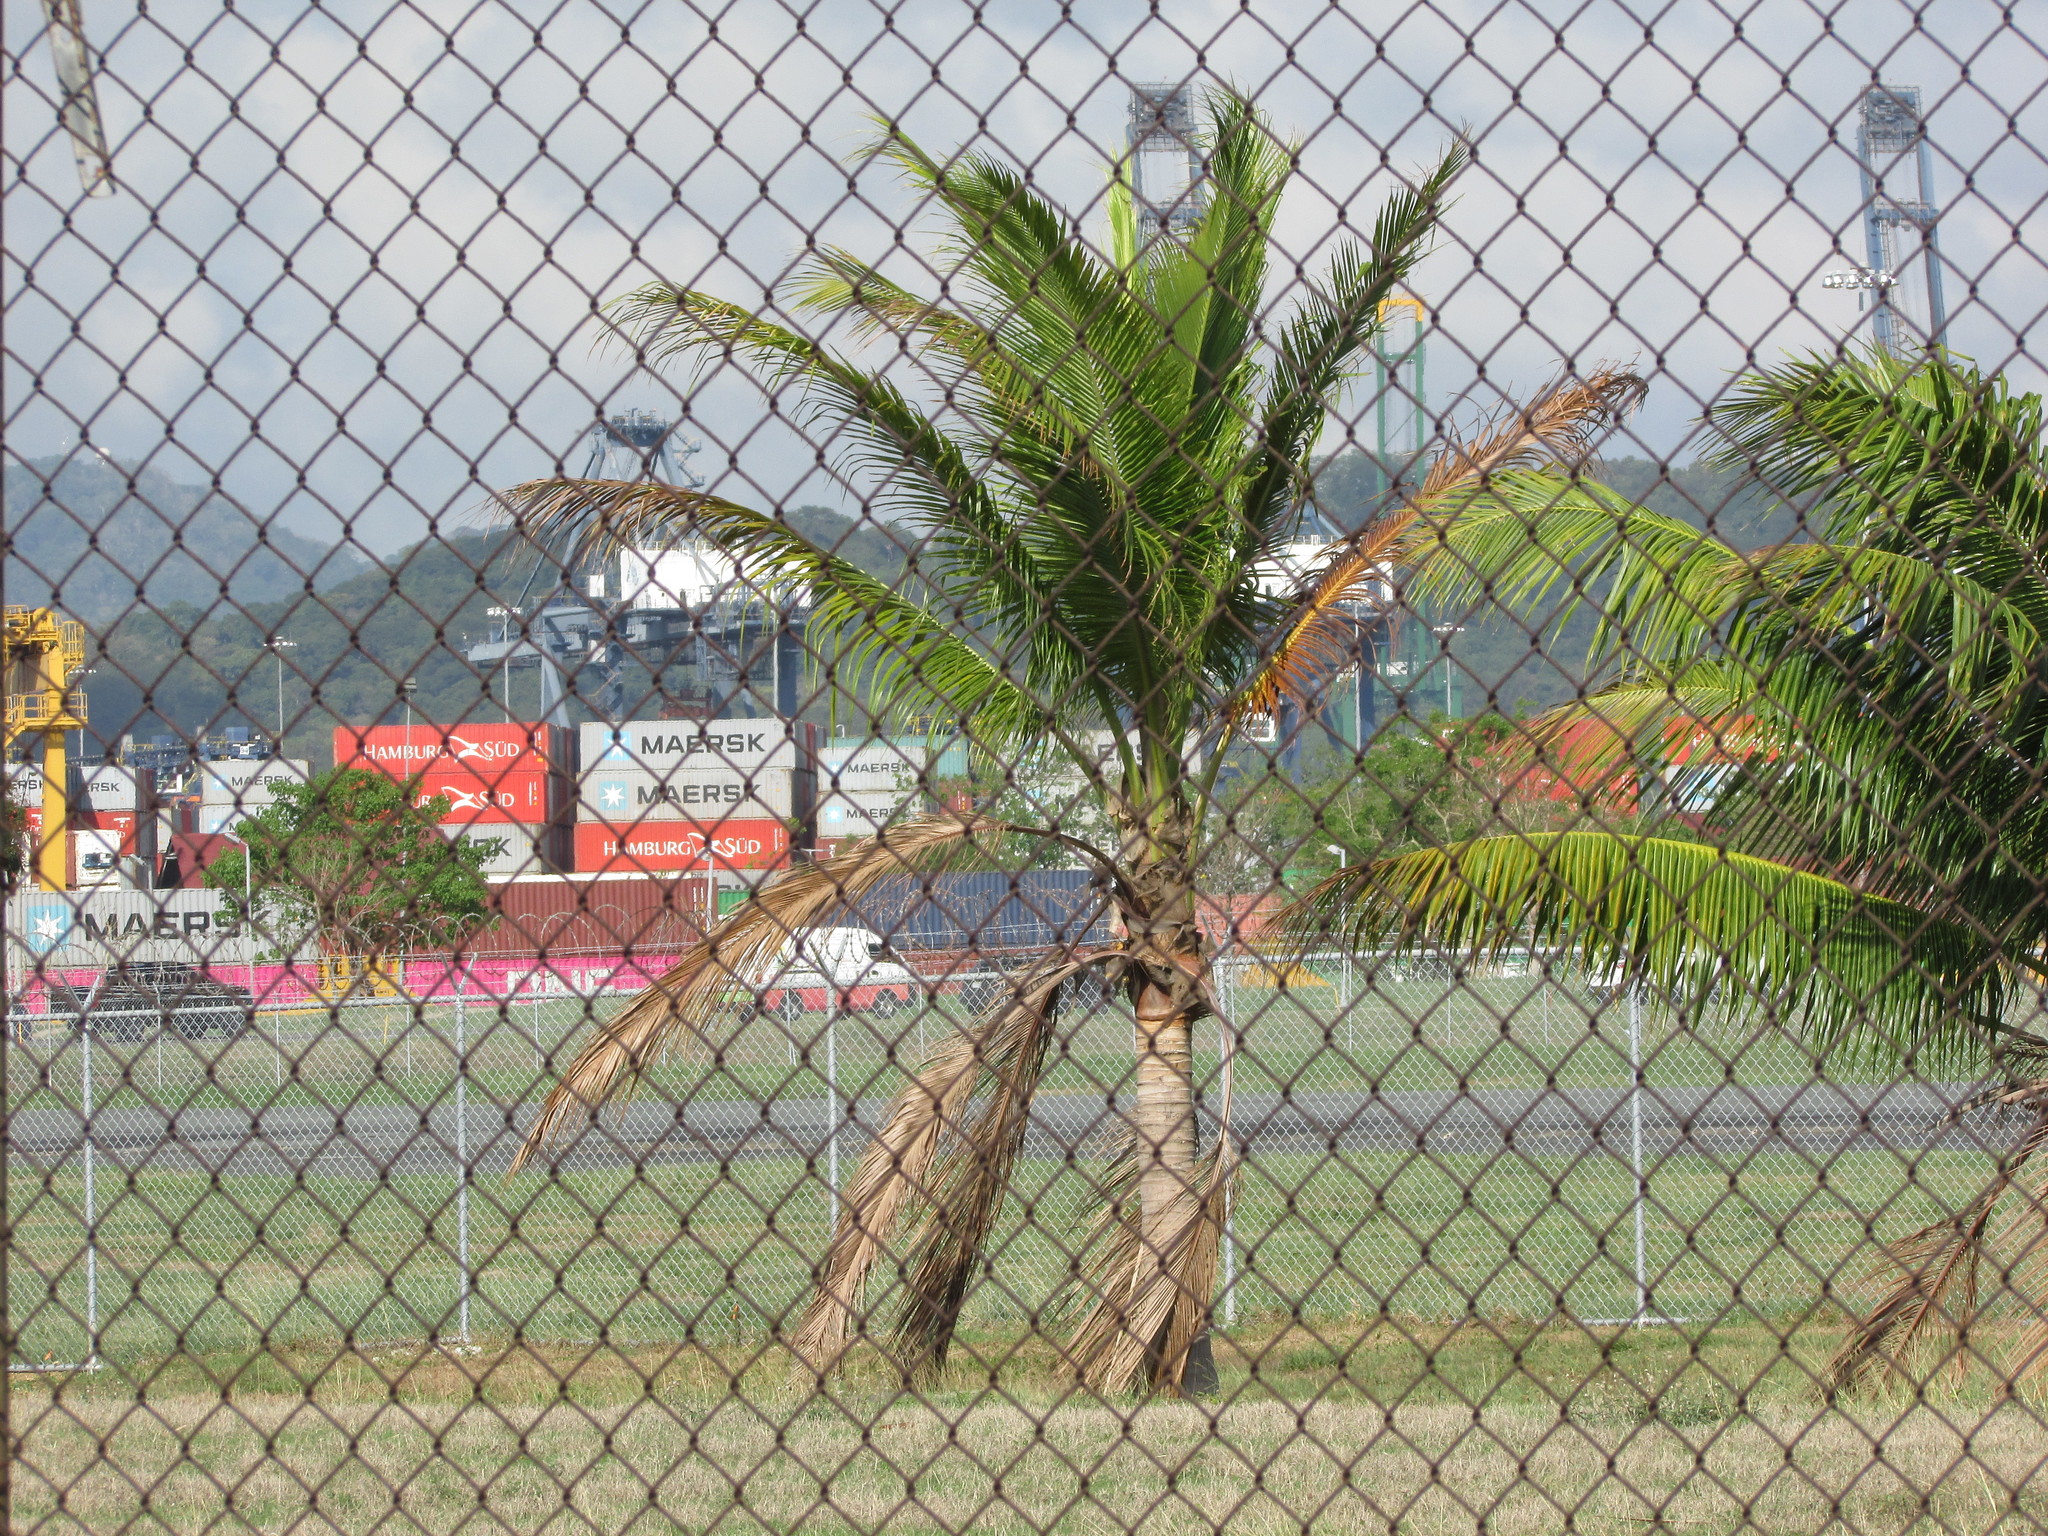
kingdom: Plantae
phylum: Tracheophyta
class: Liliopsida
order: Arecales
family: Arecaceae
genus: Cocos
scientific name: Cocos nucifera
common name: Coconut palm
